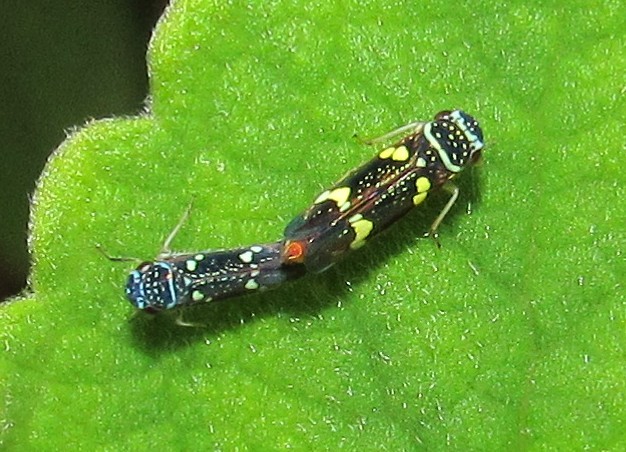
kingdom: Animalia
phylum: Arthropoda
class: Insecta
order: Hemiptera
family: Cicadellidae
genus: Macugonalia
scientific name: Macugonalia leucomelas
